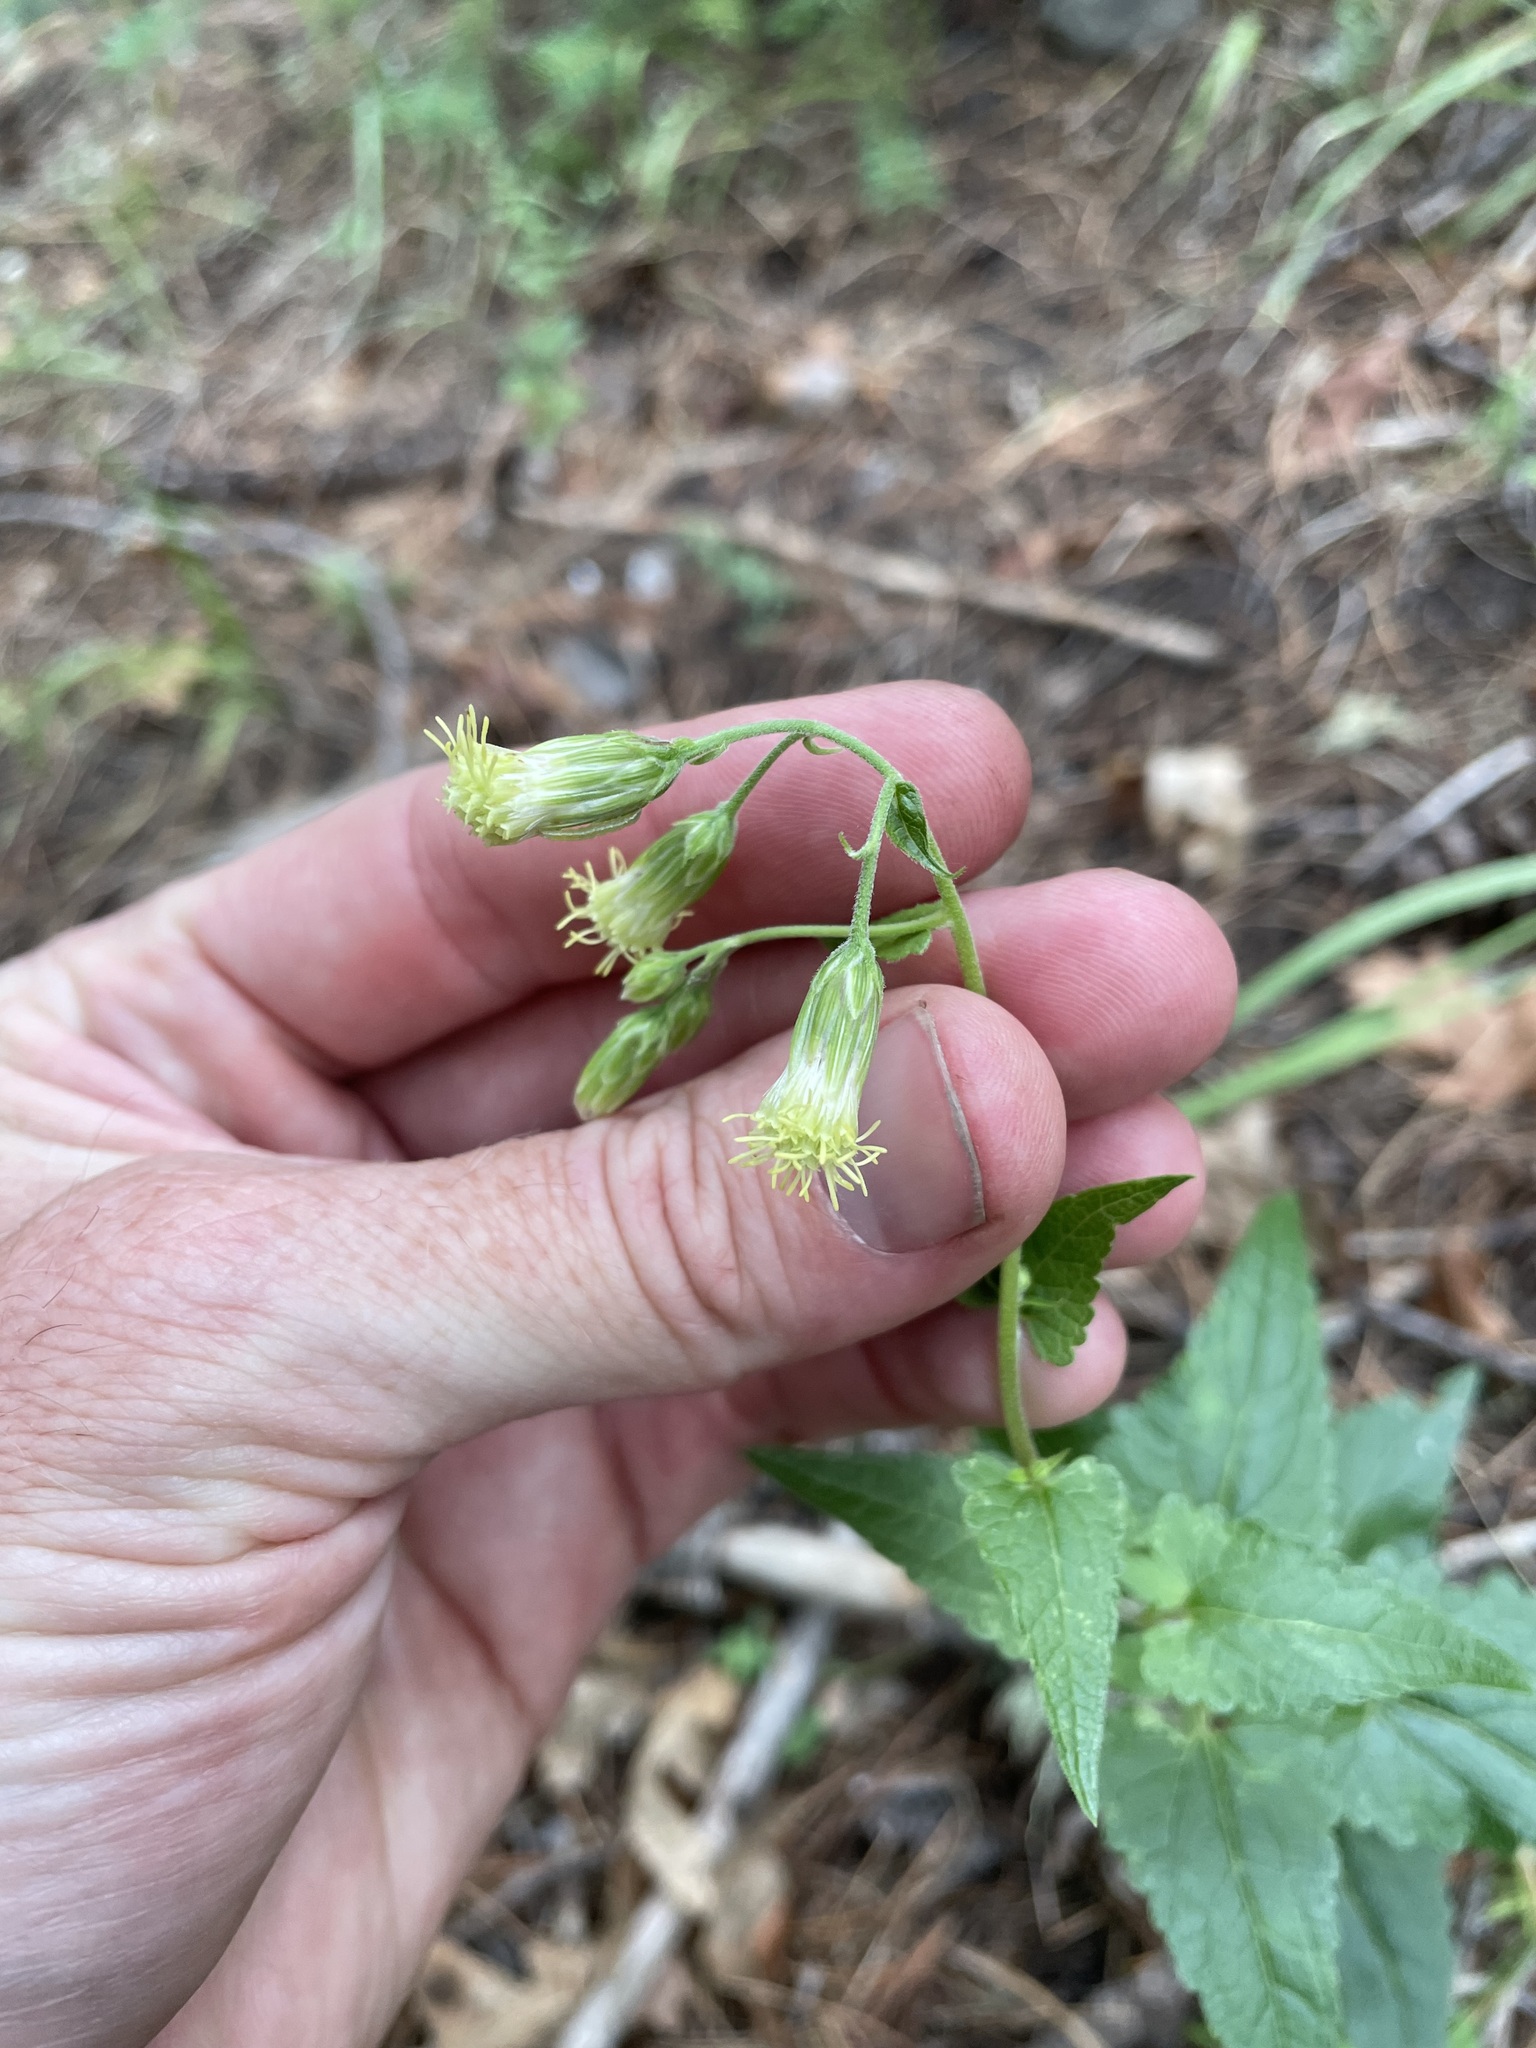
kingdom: Plantae
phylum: Tracheophyta
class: Magnoliopsida
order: Asterales
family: Asteraceae
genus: Brickellia
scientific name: Brickellia grandiflora
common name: Large-flowered brickellia
